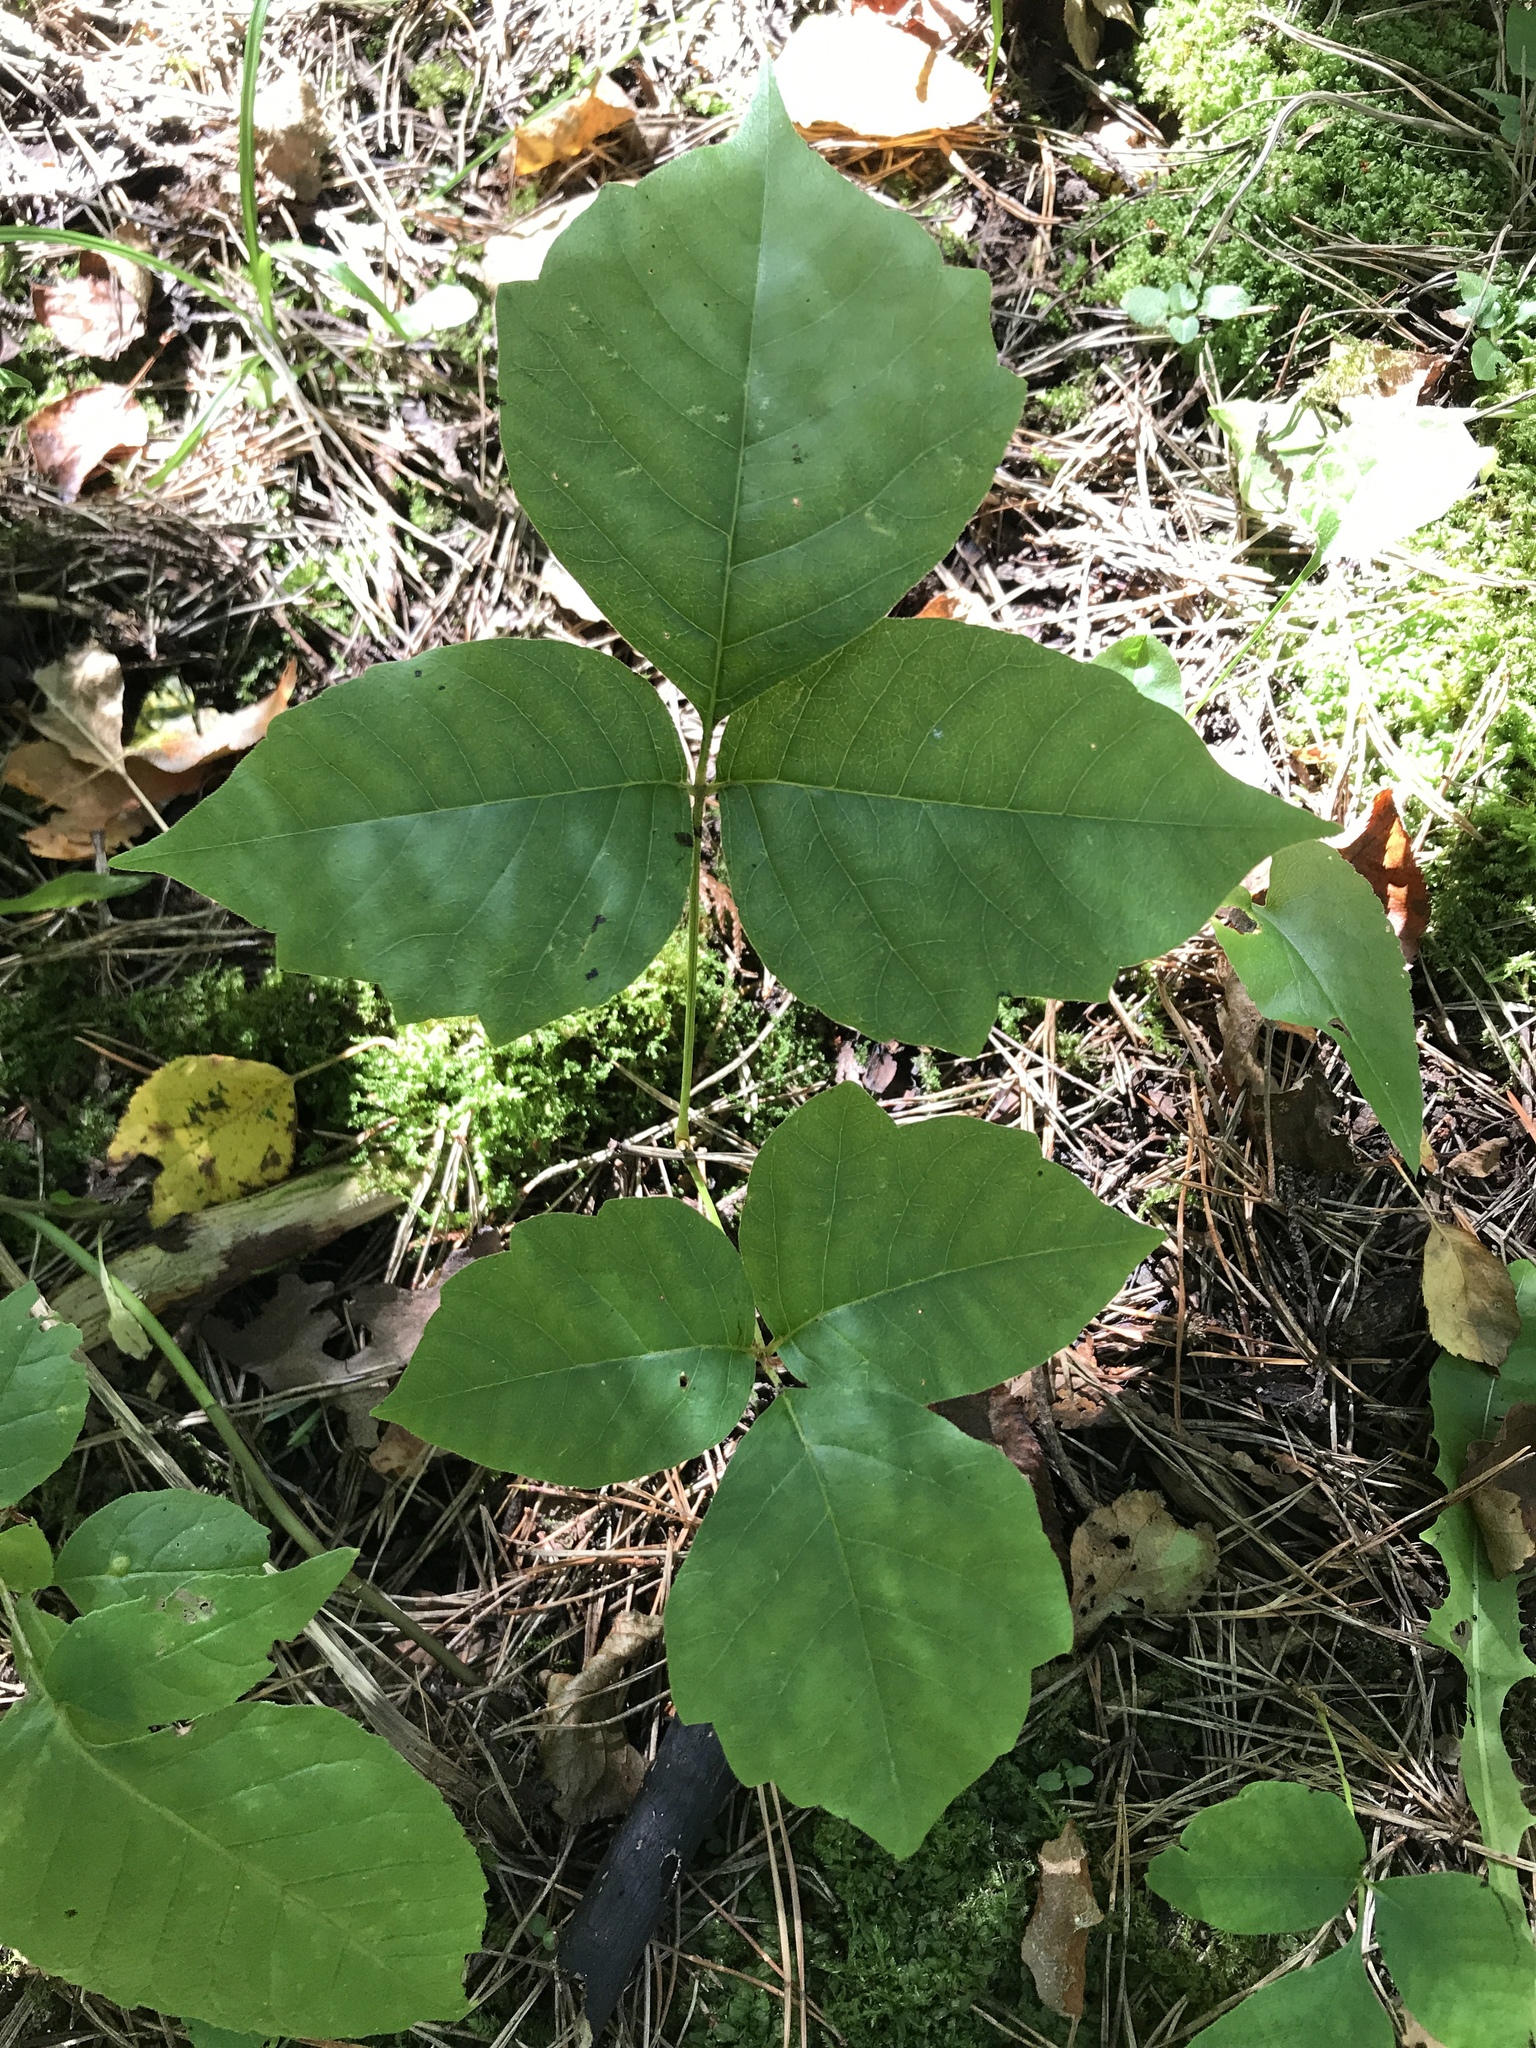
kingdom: Plantae
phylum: Tracheophyta
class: Magnoliopsida
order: Sapindales
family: Anacardiaceae
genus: Toxicodendron
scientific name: Toxicodendron rydbergii
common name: Rydberg's poison-ivy
